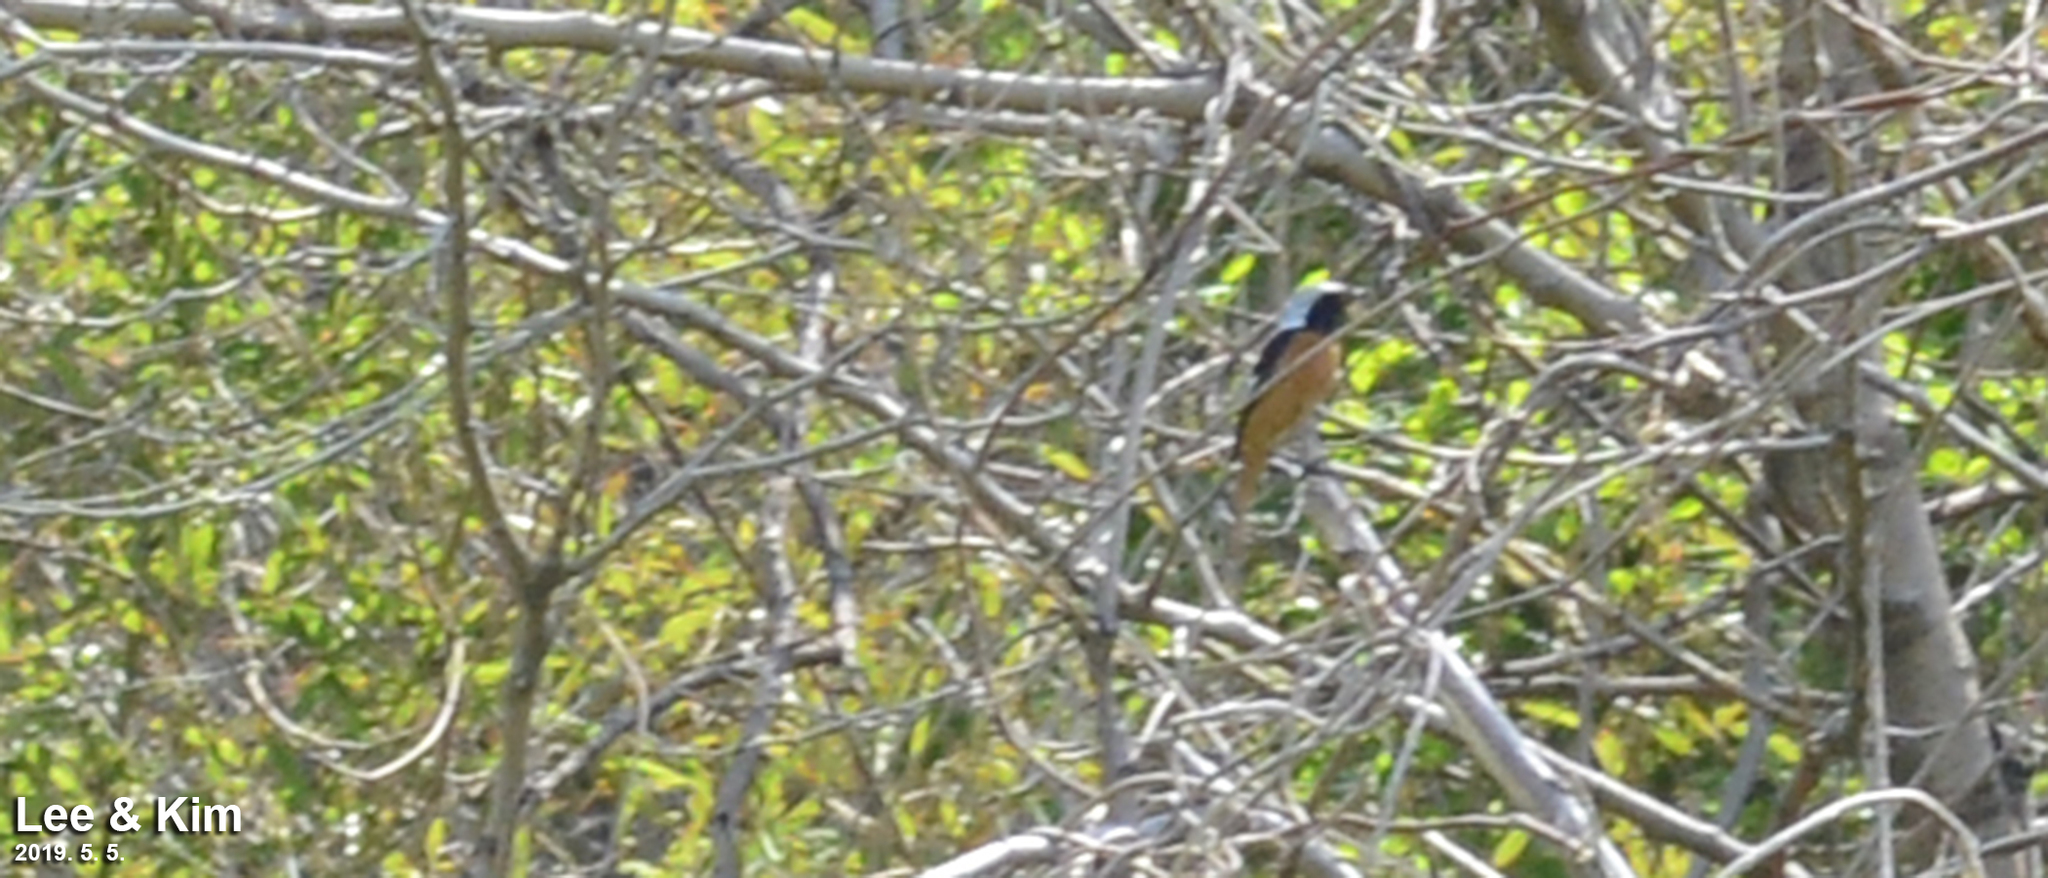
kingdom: Animalia
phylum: Chordata
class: Aves
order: Passeriformes
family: Muscicapidae
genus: Phoenicurus
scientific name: Phoenicurus auroreus
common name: Daurian redstart
